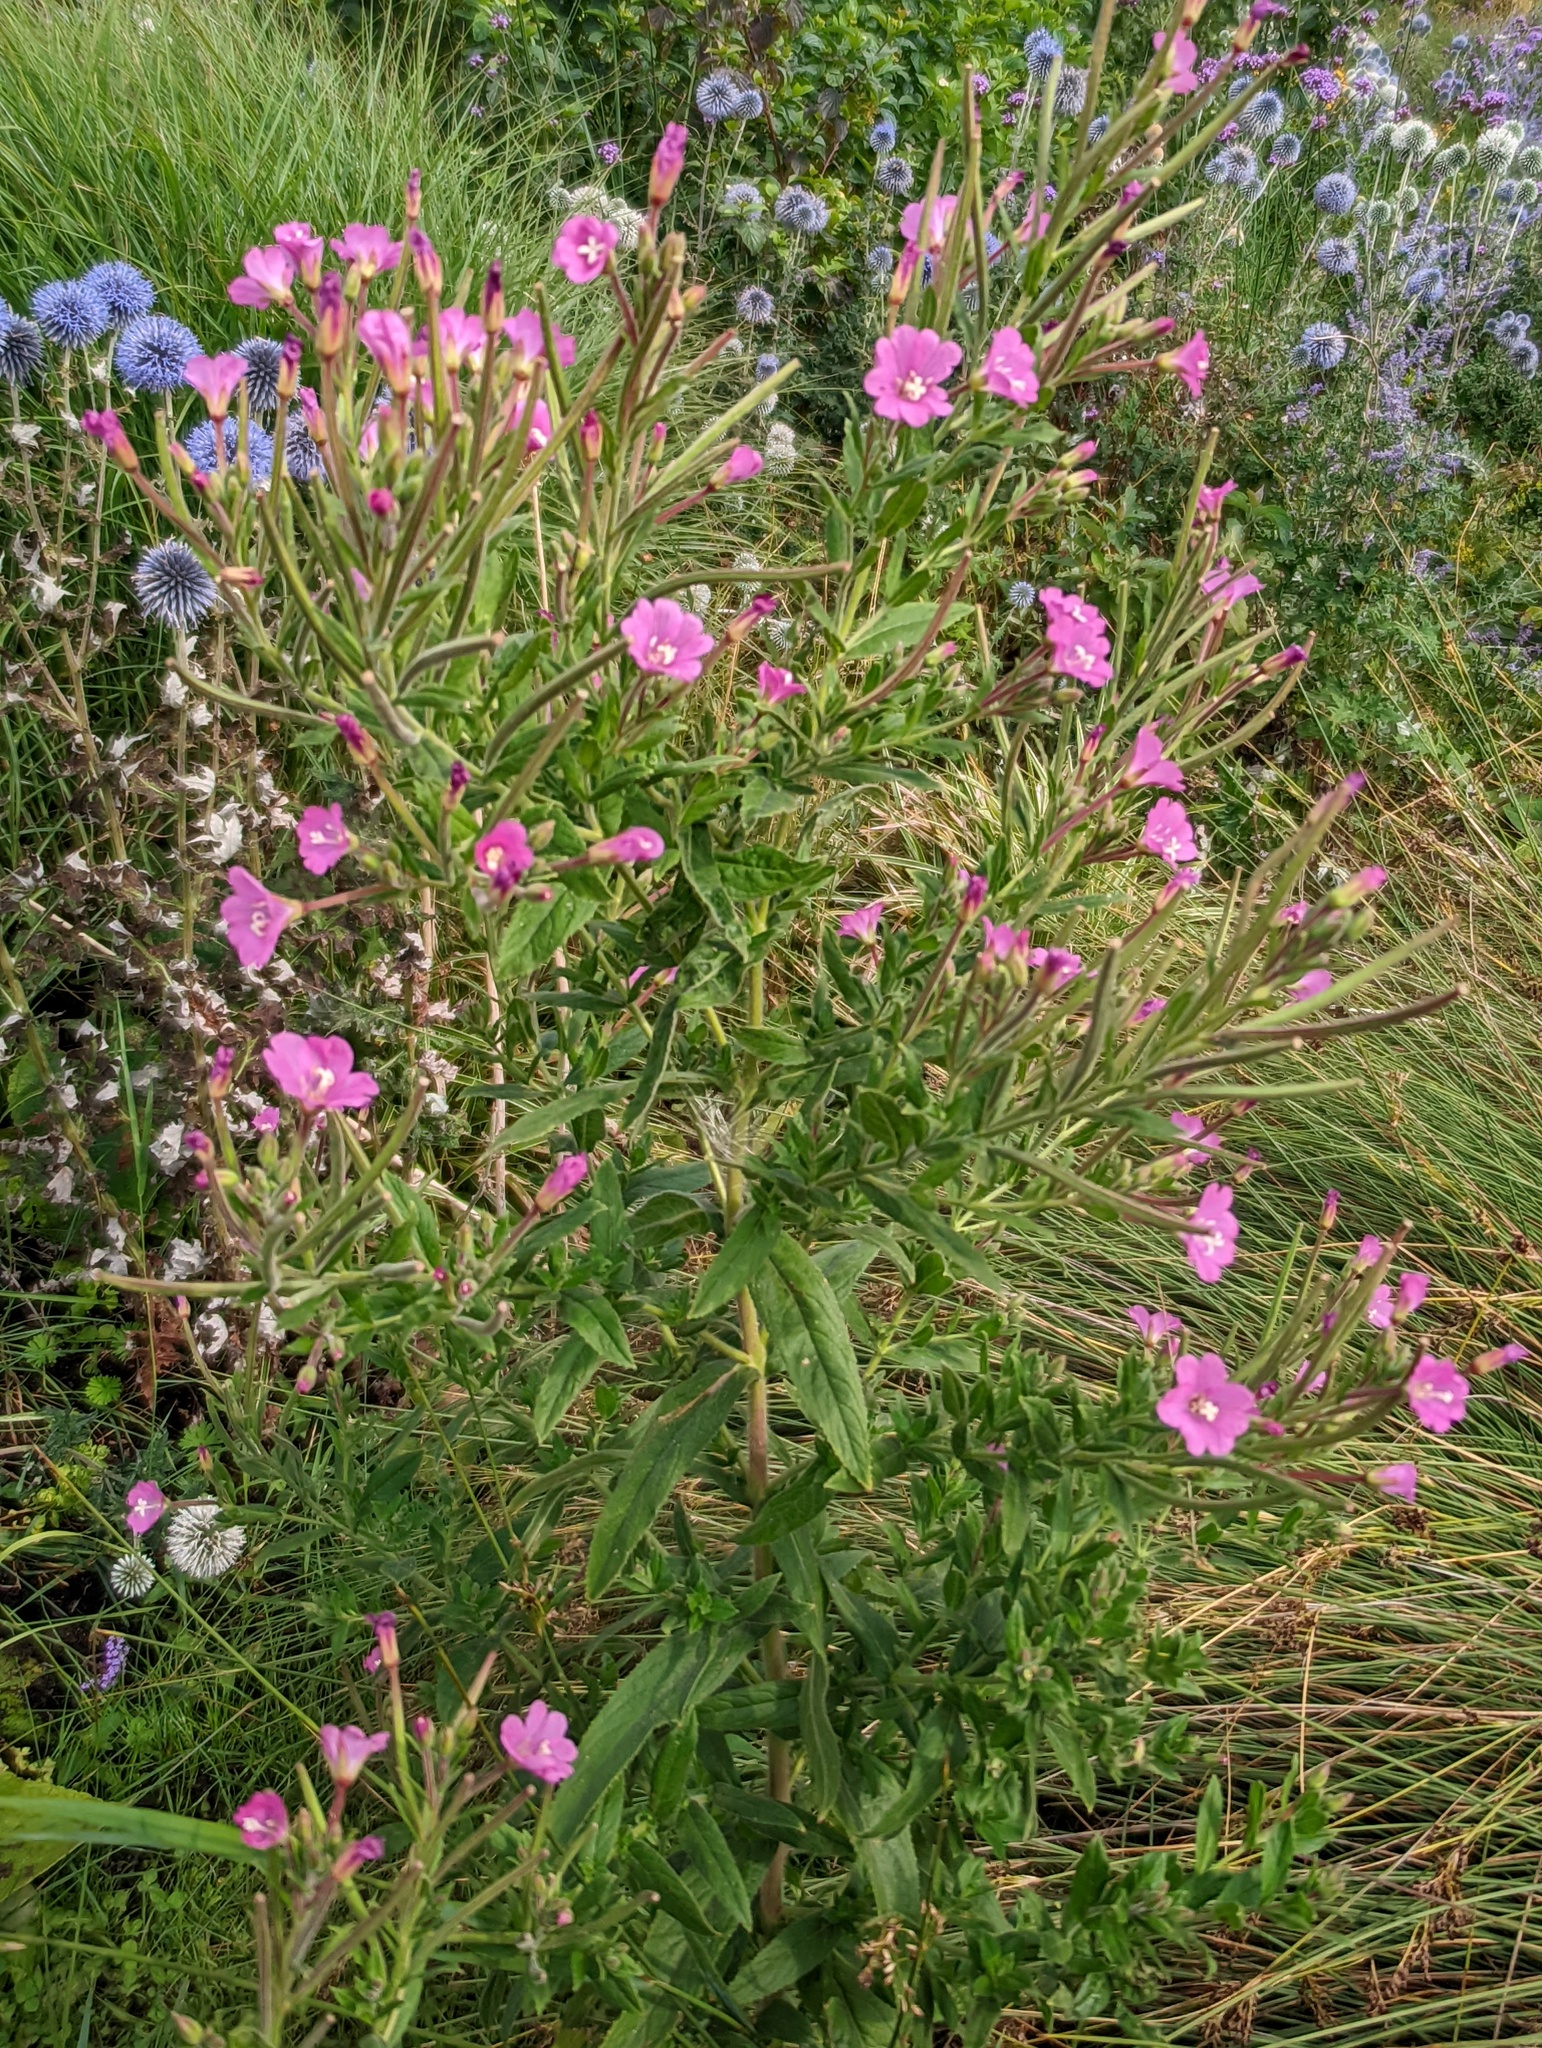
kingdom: Plantae
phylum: Tracheophyta
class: Magnoliopsida
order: Myrtales
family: Onagraceae
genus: Epilobium
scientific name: Epilobium hirsutum
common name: Great willowherb
